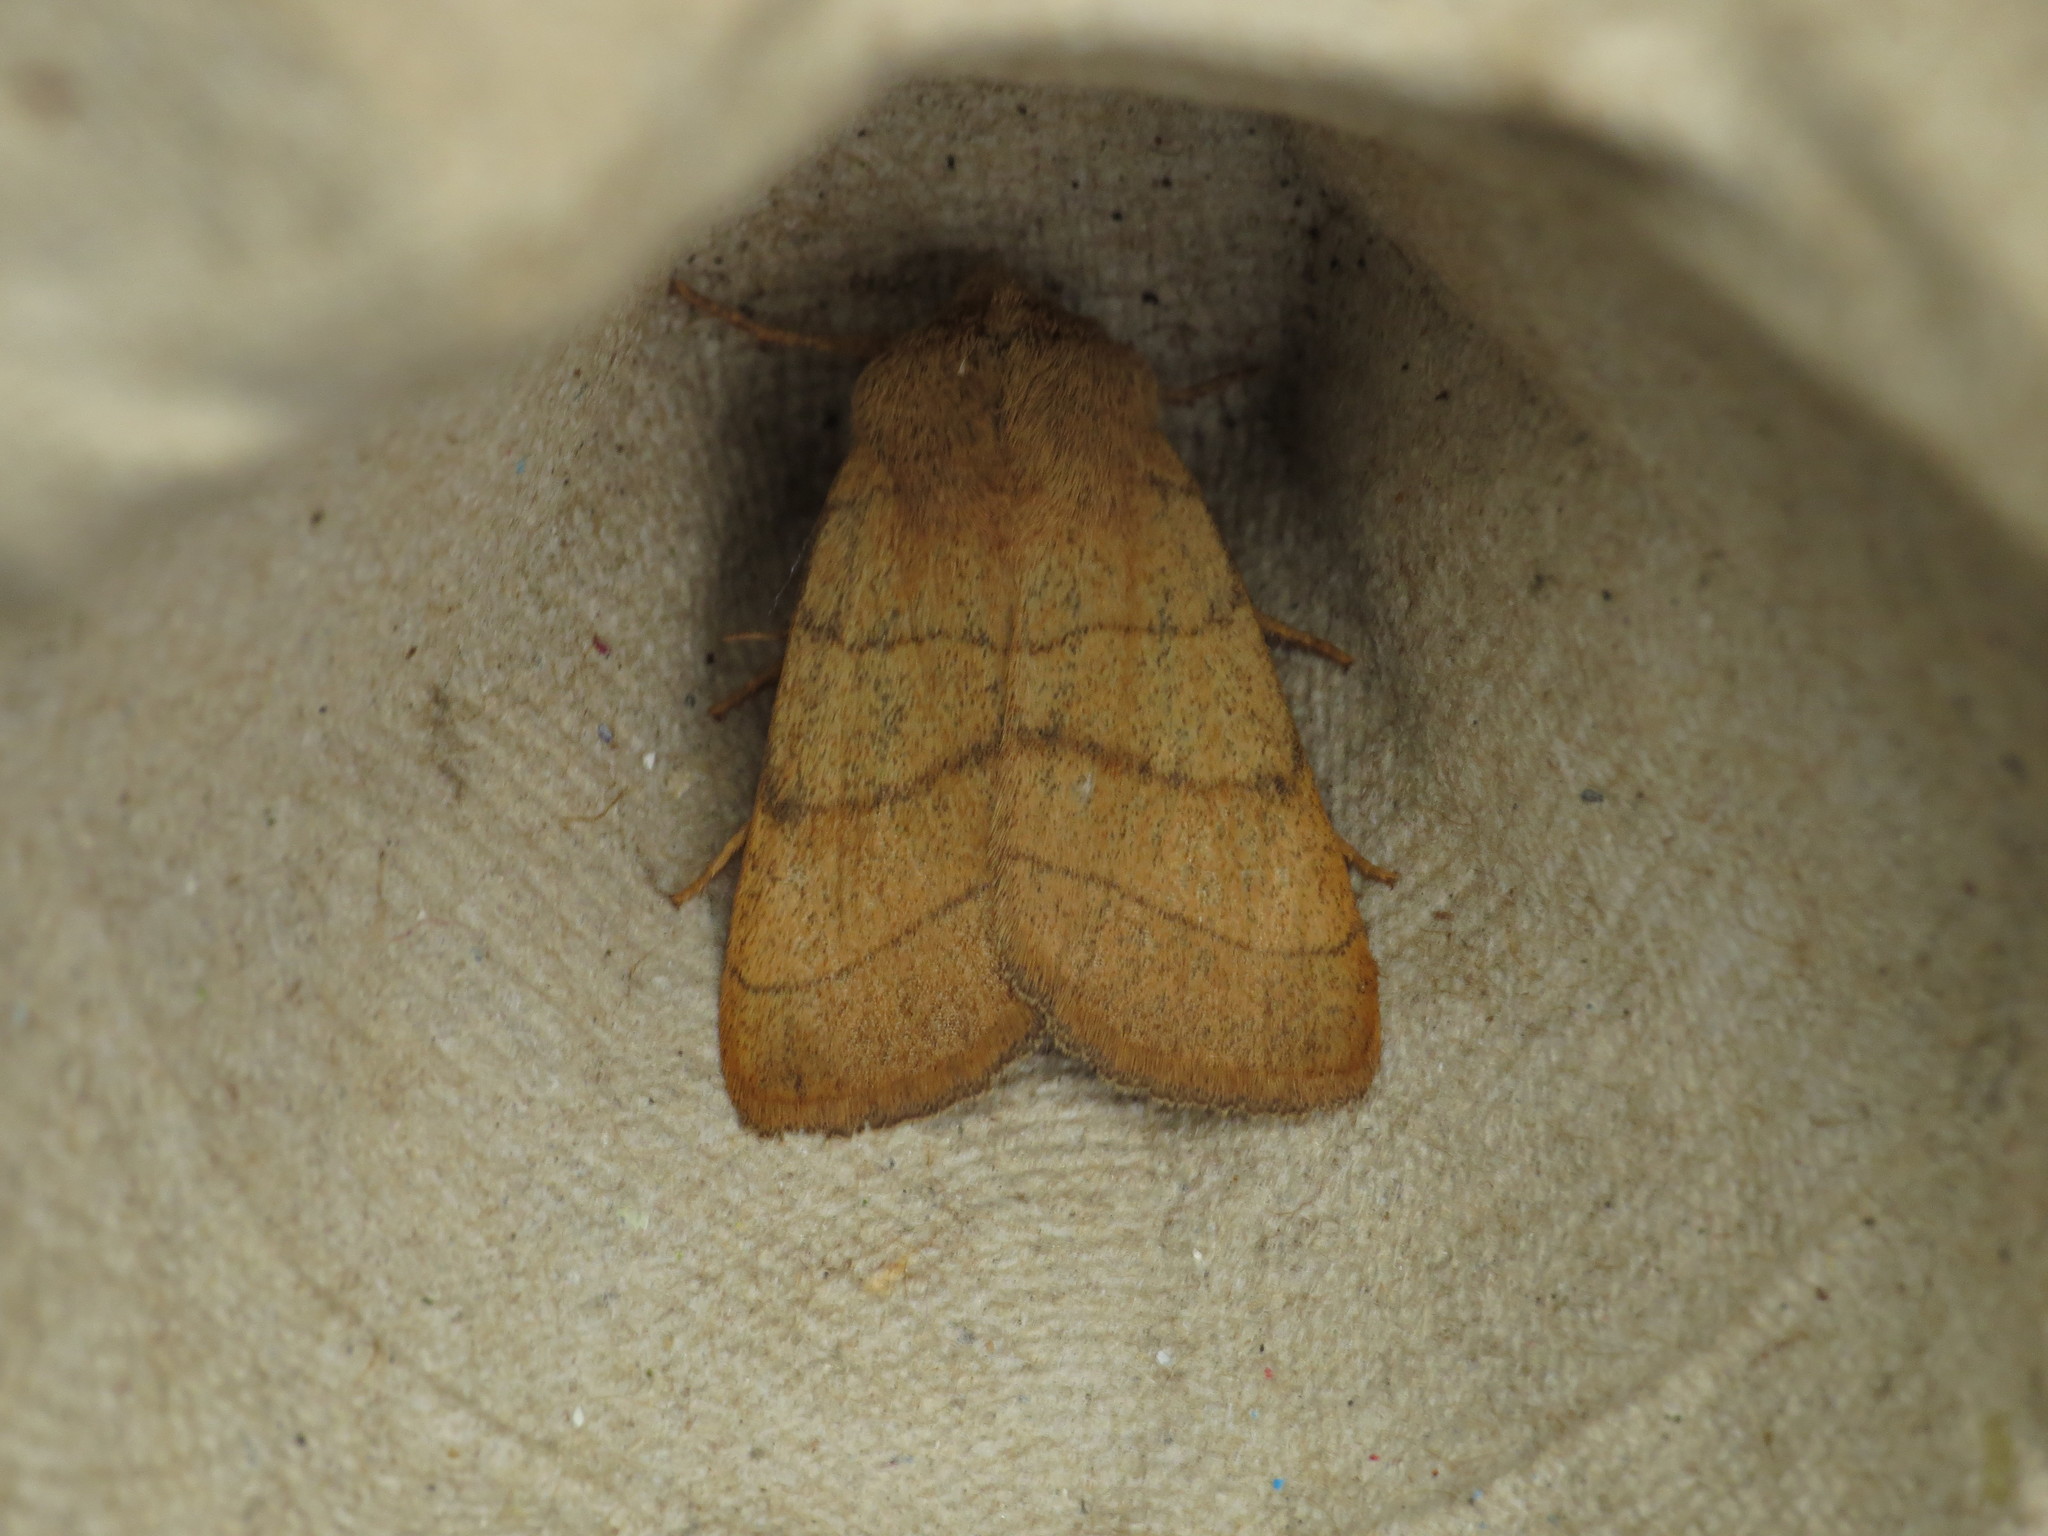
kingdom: Animalia
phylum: Arthropoda
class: Insecta
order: Lepidoptera
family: Noctuidae
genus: Charanyca
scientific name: Charanyca trigrammica
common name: Treble lines
